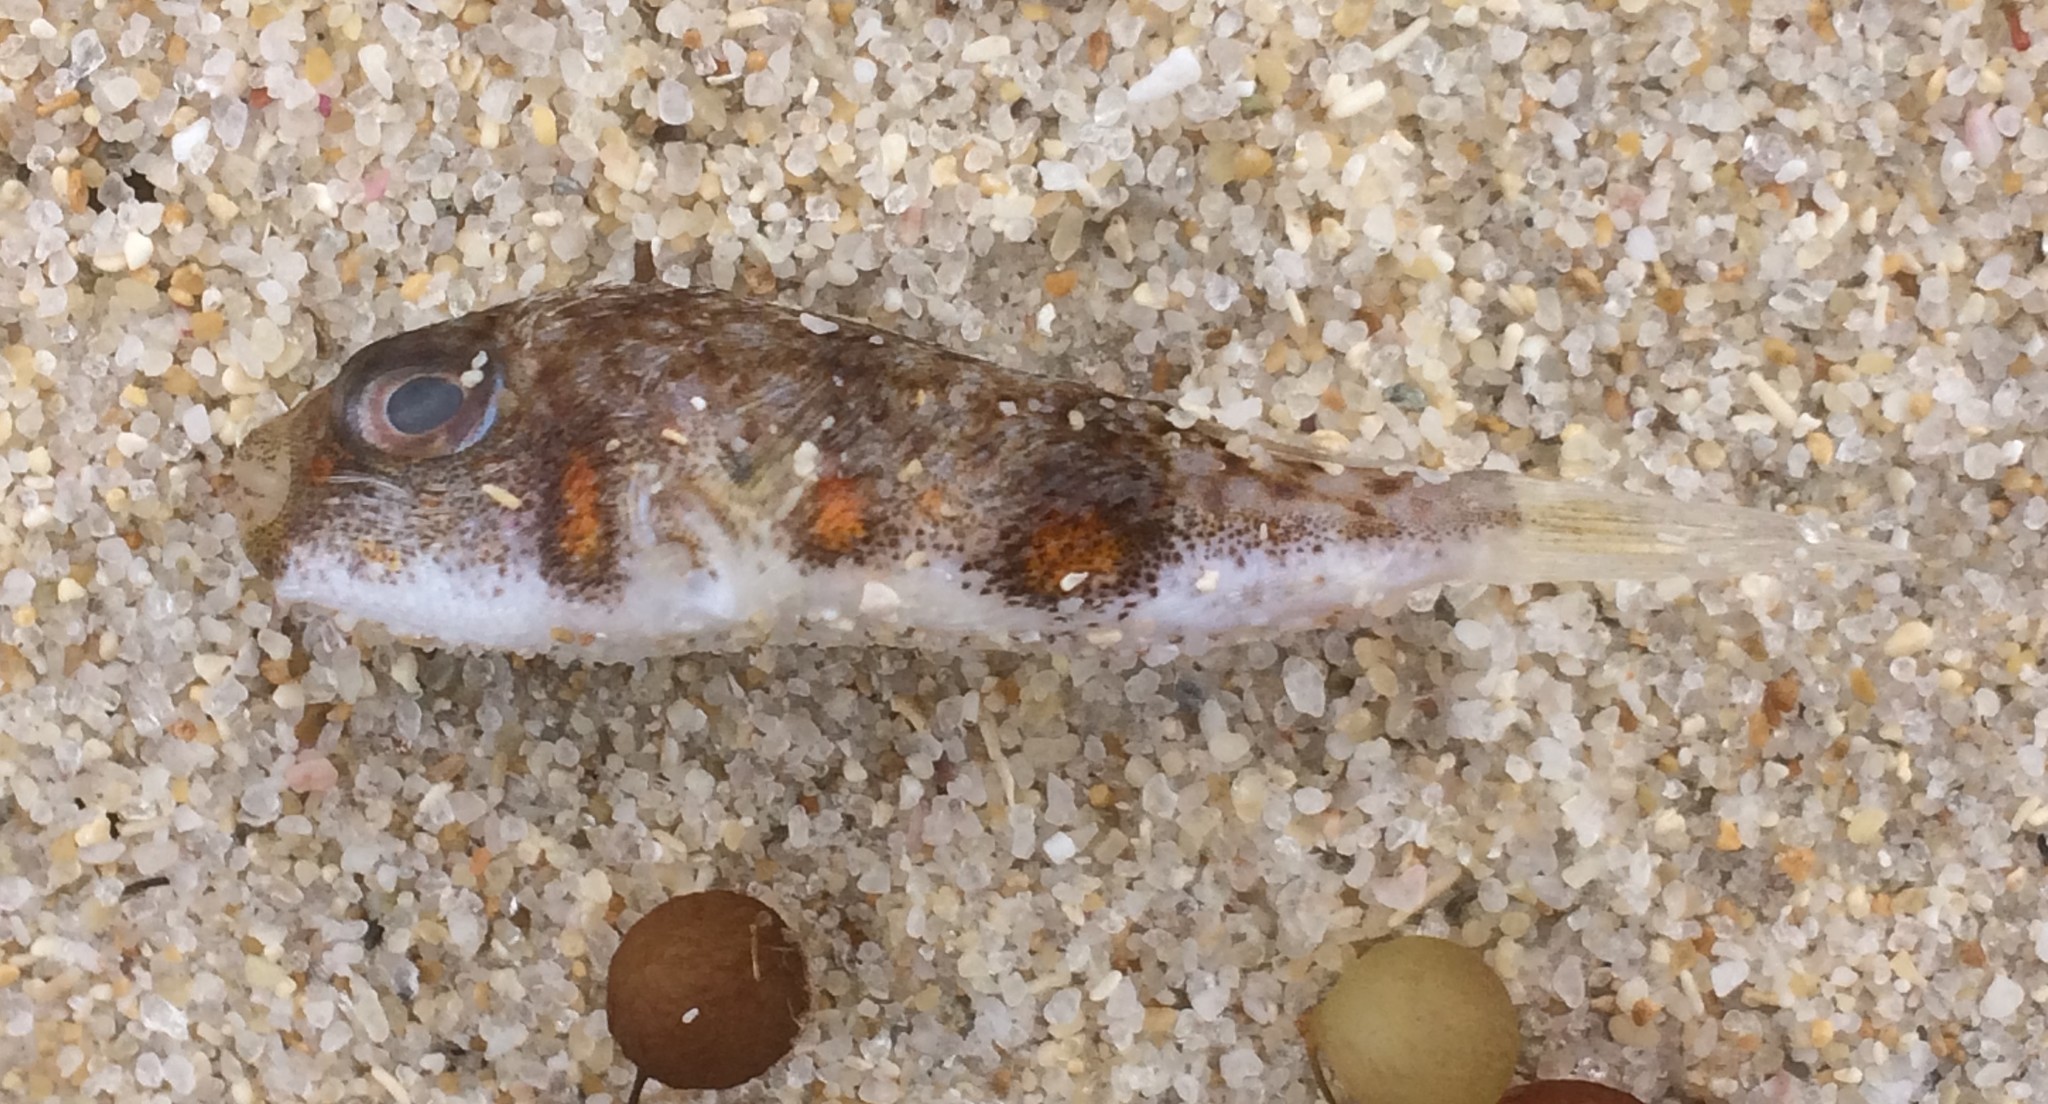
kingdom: Animalia
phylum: Chordata
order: Tetraodontiformes
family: Tetraodontidae
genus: Polyspina
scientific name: Polyspina piosae
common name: Orange-barred pufferfish
